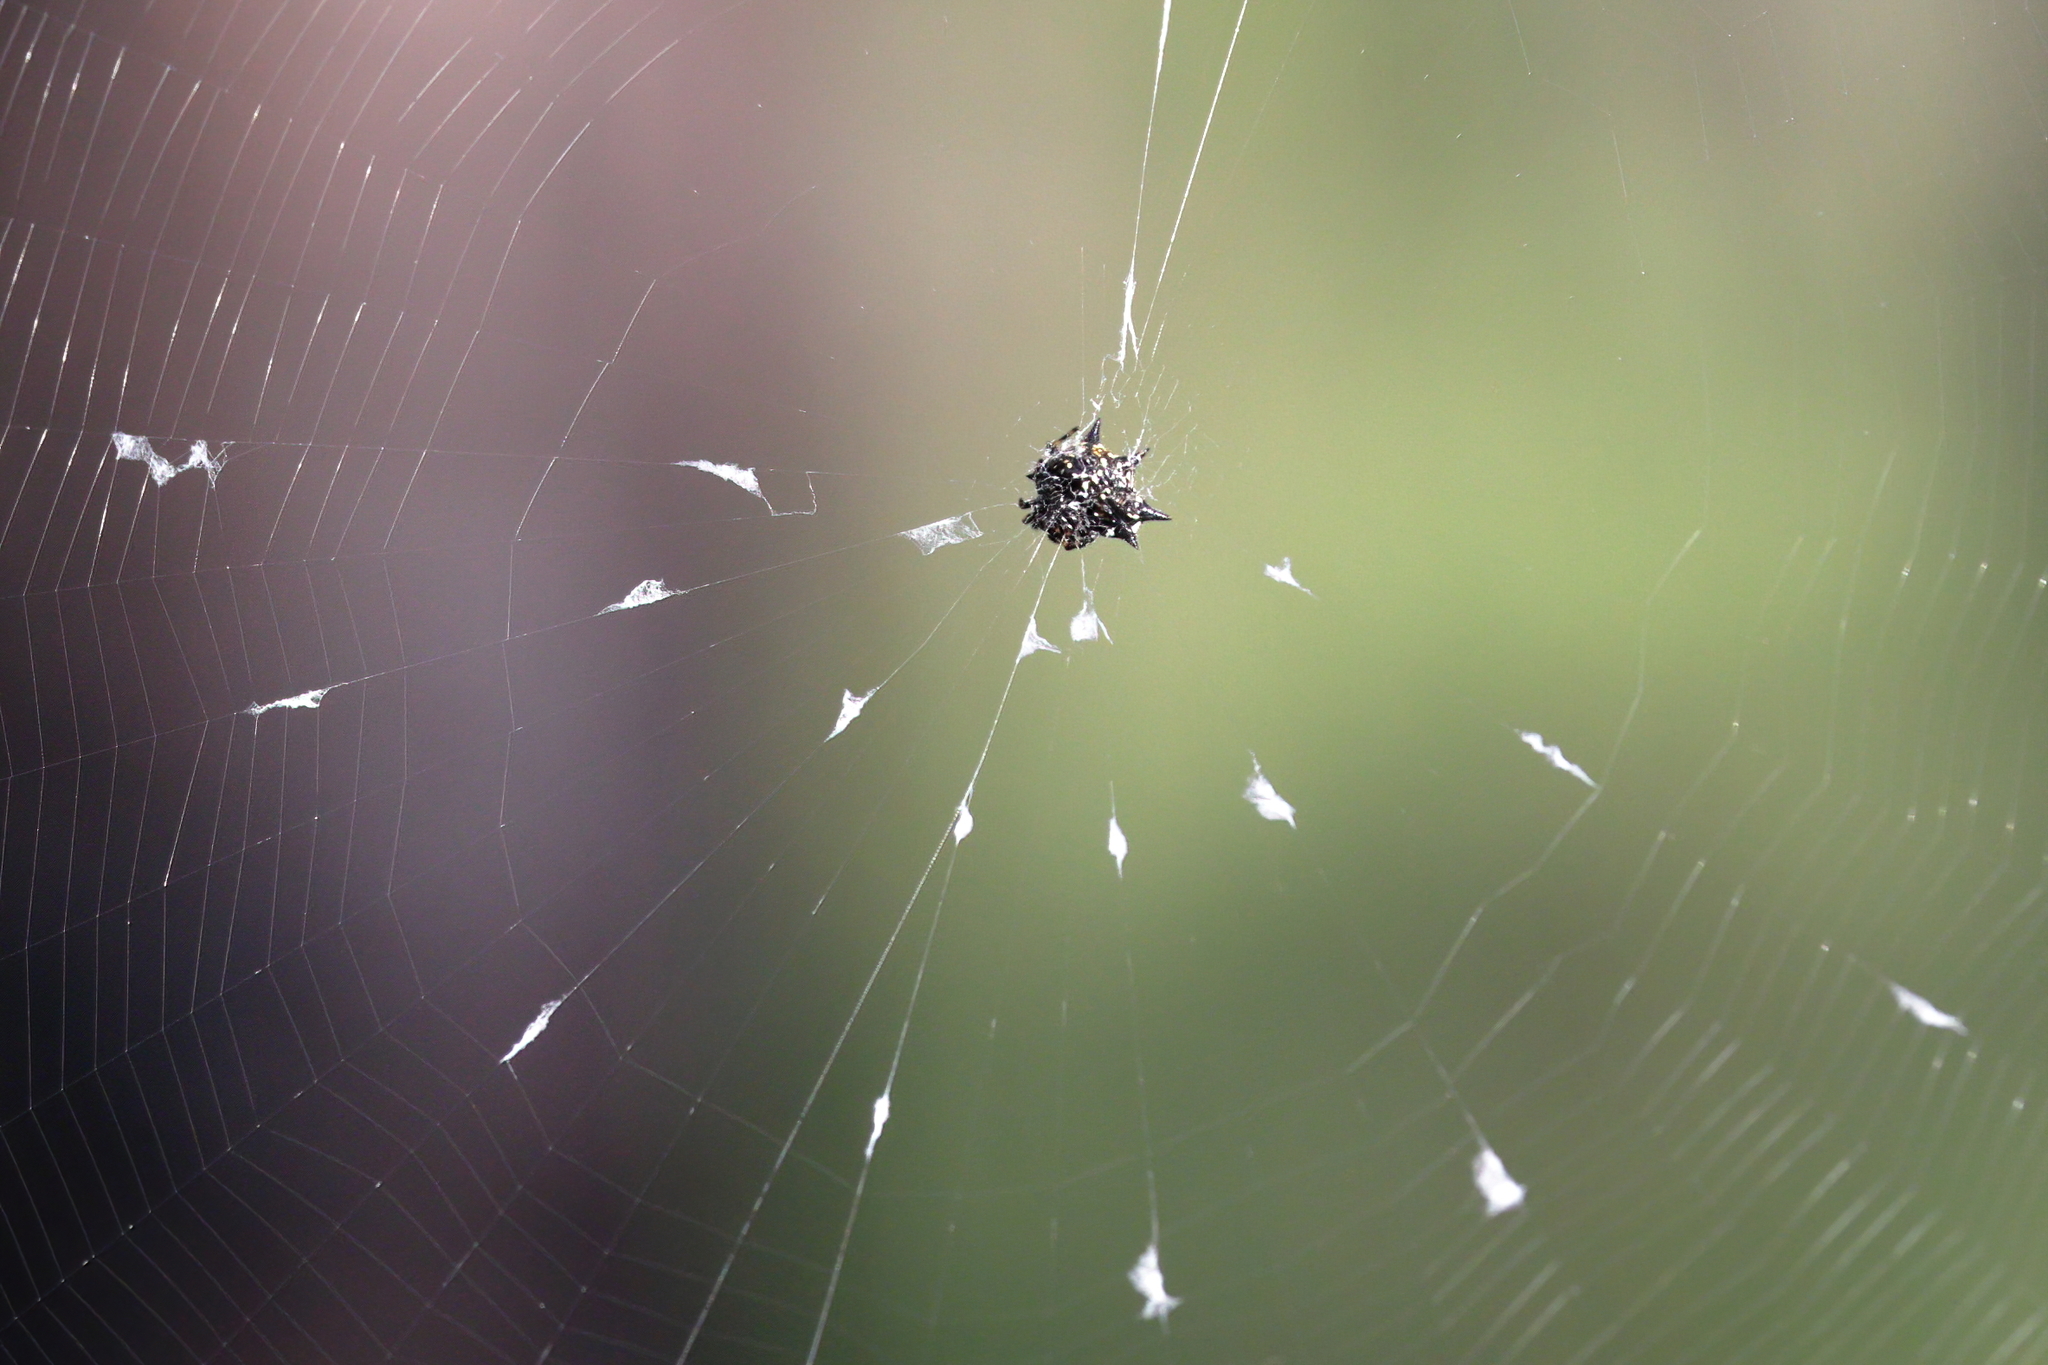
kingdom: Animalia
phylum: Arthropoda
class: Arachnida
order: Araneae
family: Araneidae
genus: Gasteracantha
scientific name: Gasteracantha cancriformis
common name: Orb weavers
